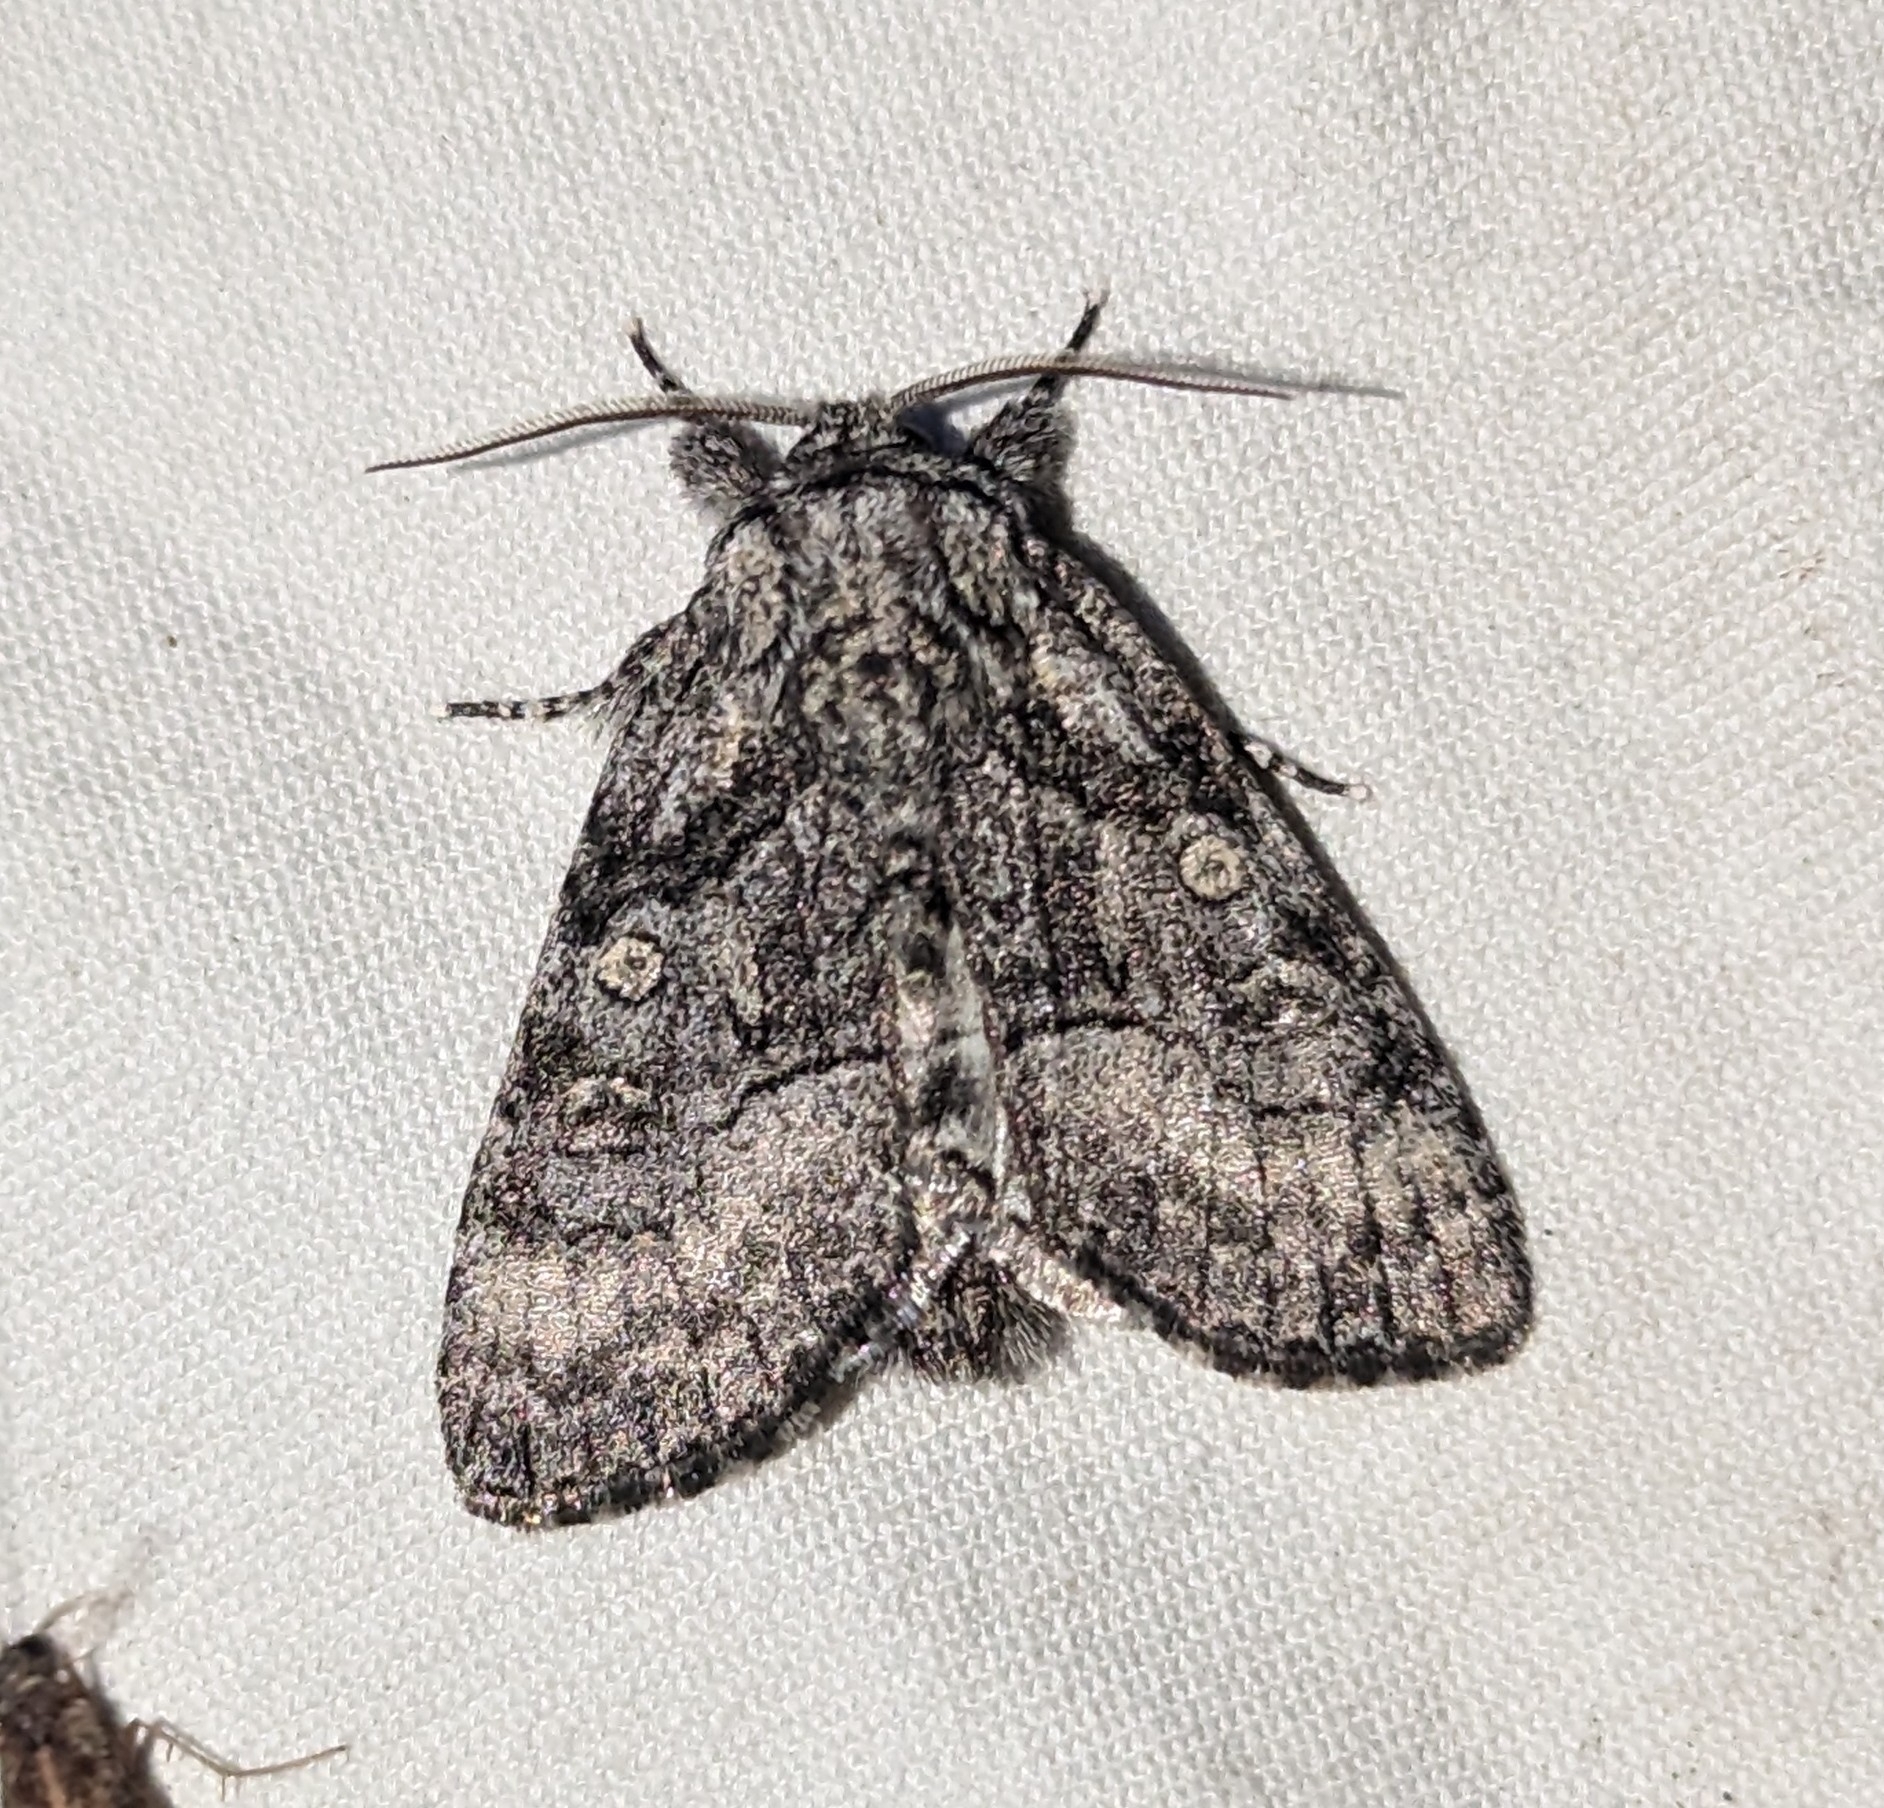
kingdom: Animalia
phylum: Arthropoda
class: Insecta
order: Lepidoptera
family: Noctuidae
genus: Raphia
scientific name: Raphia frater
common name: Brother
